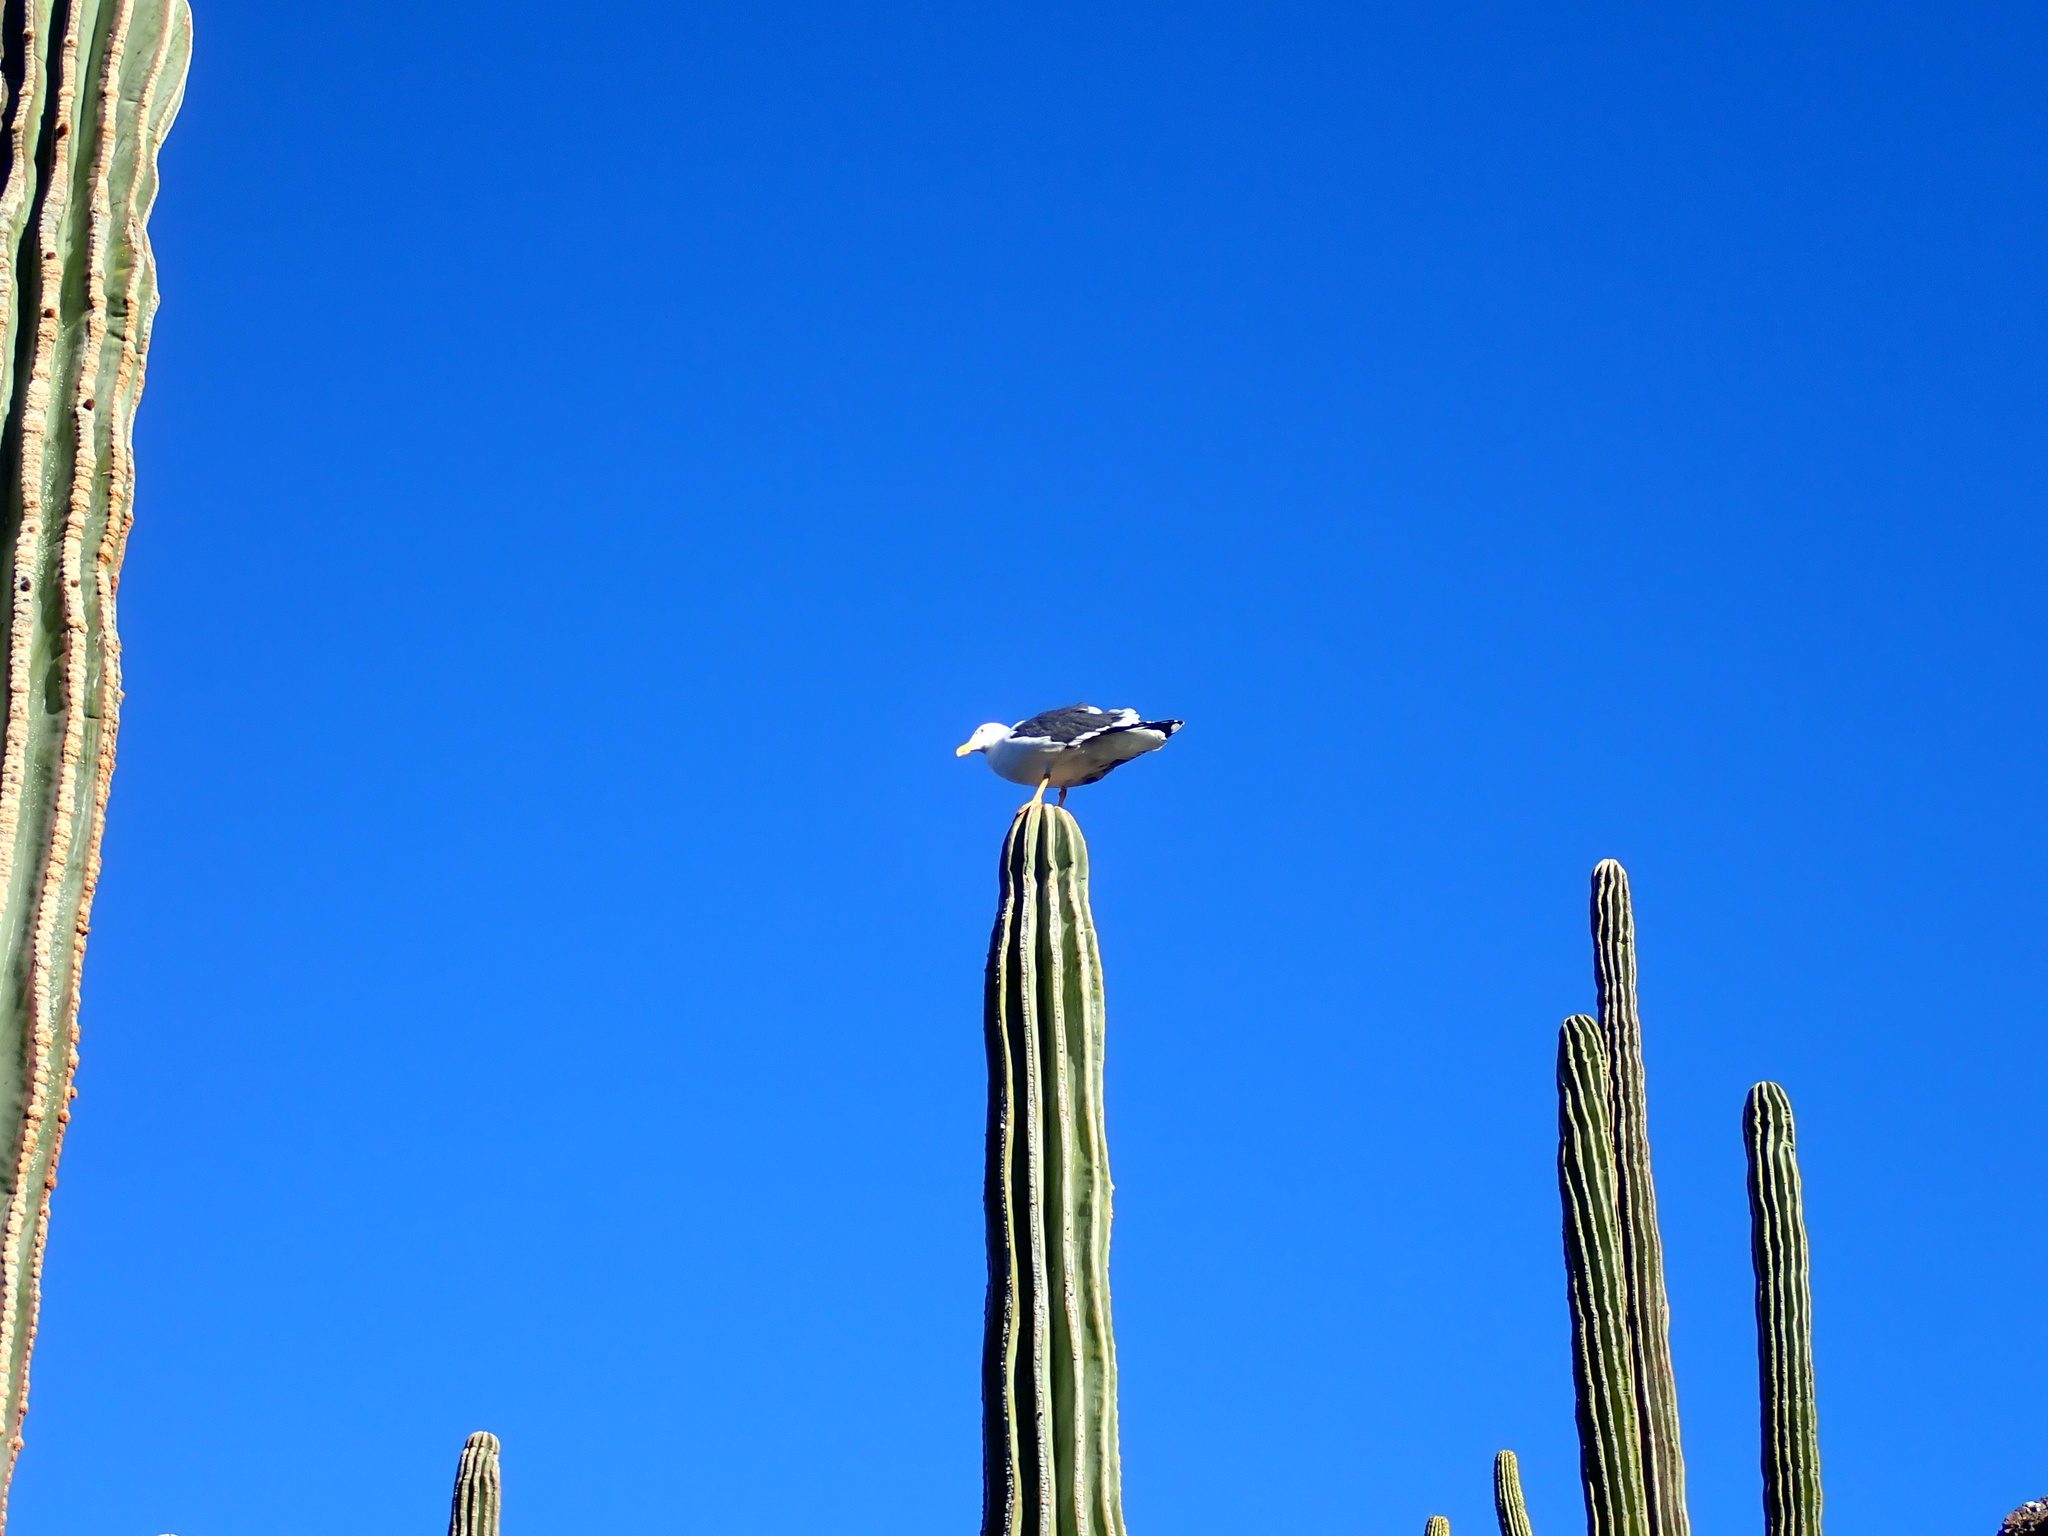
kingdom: Animalia
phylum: Chordata
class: Aves
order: Charadriiformes
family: Laridae
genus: Larus
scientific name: Larus livens
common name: Yellow-footed gull
